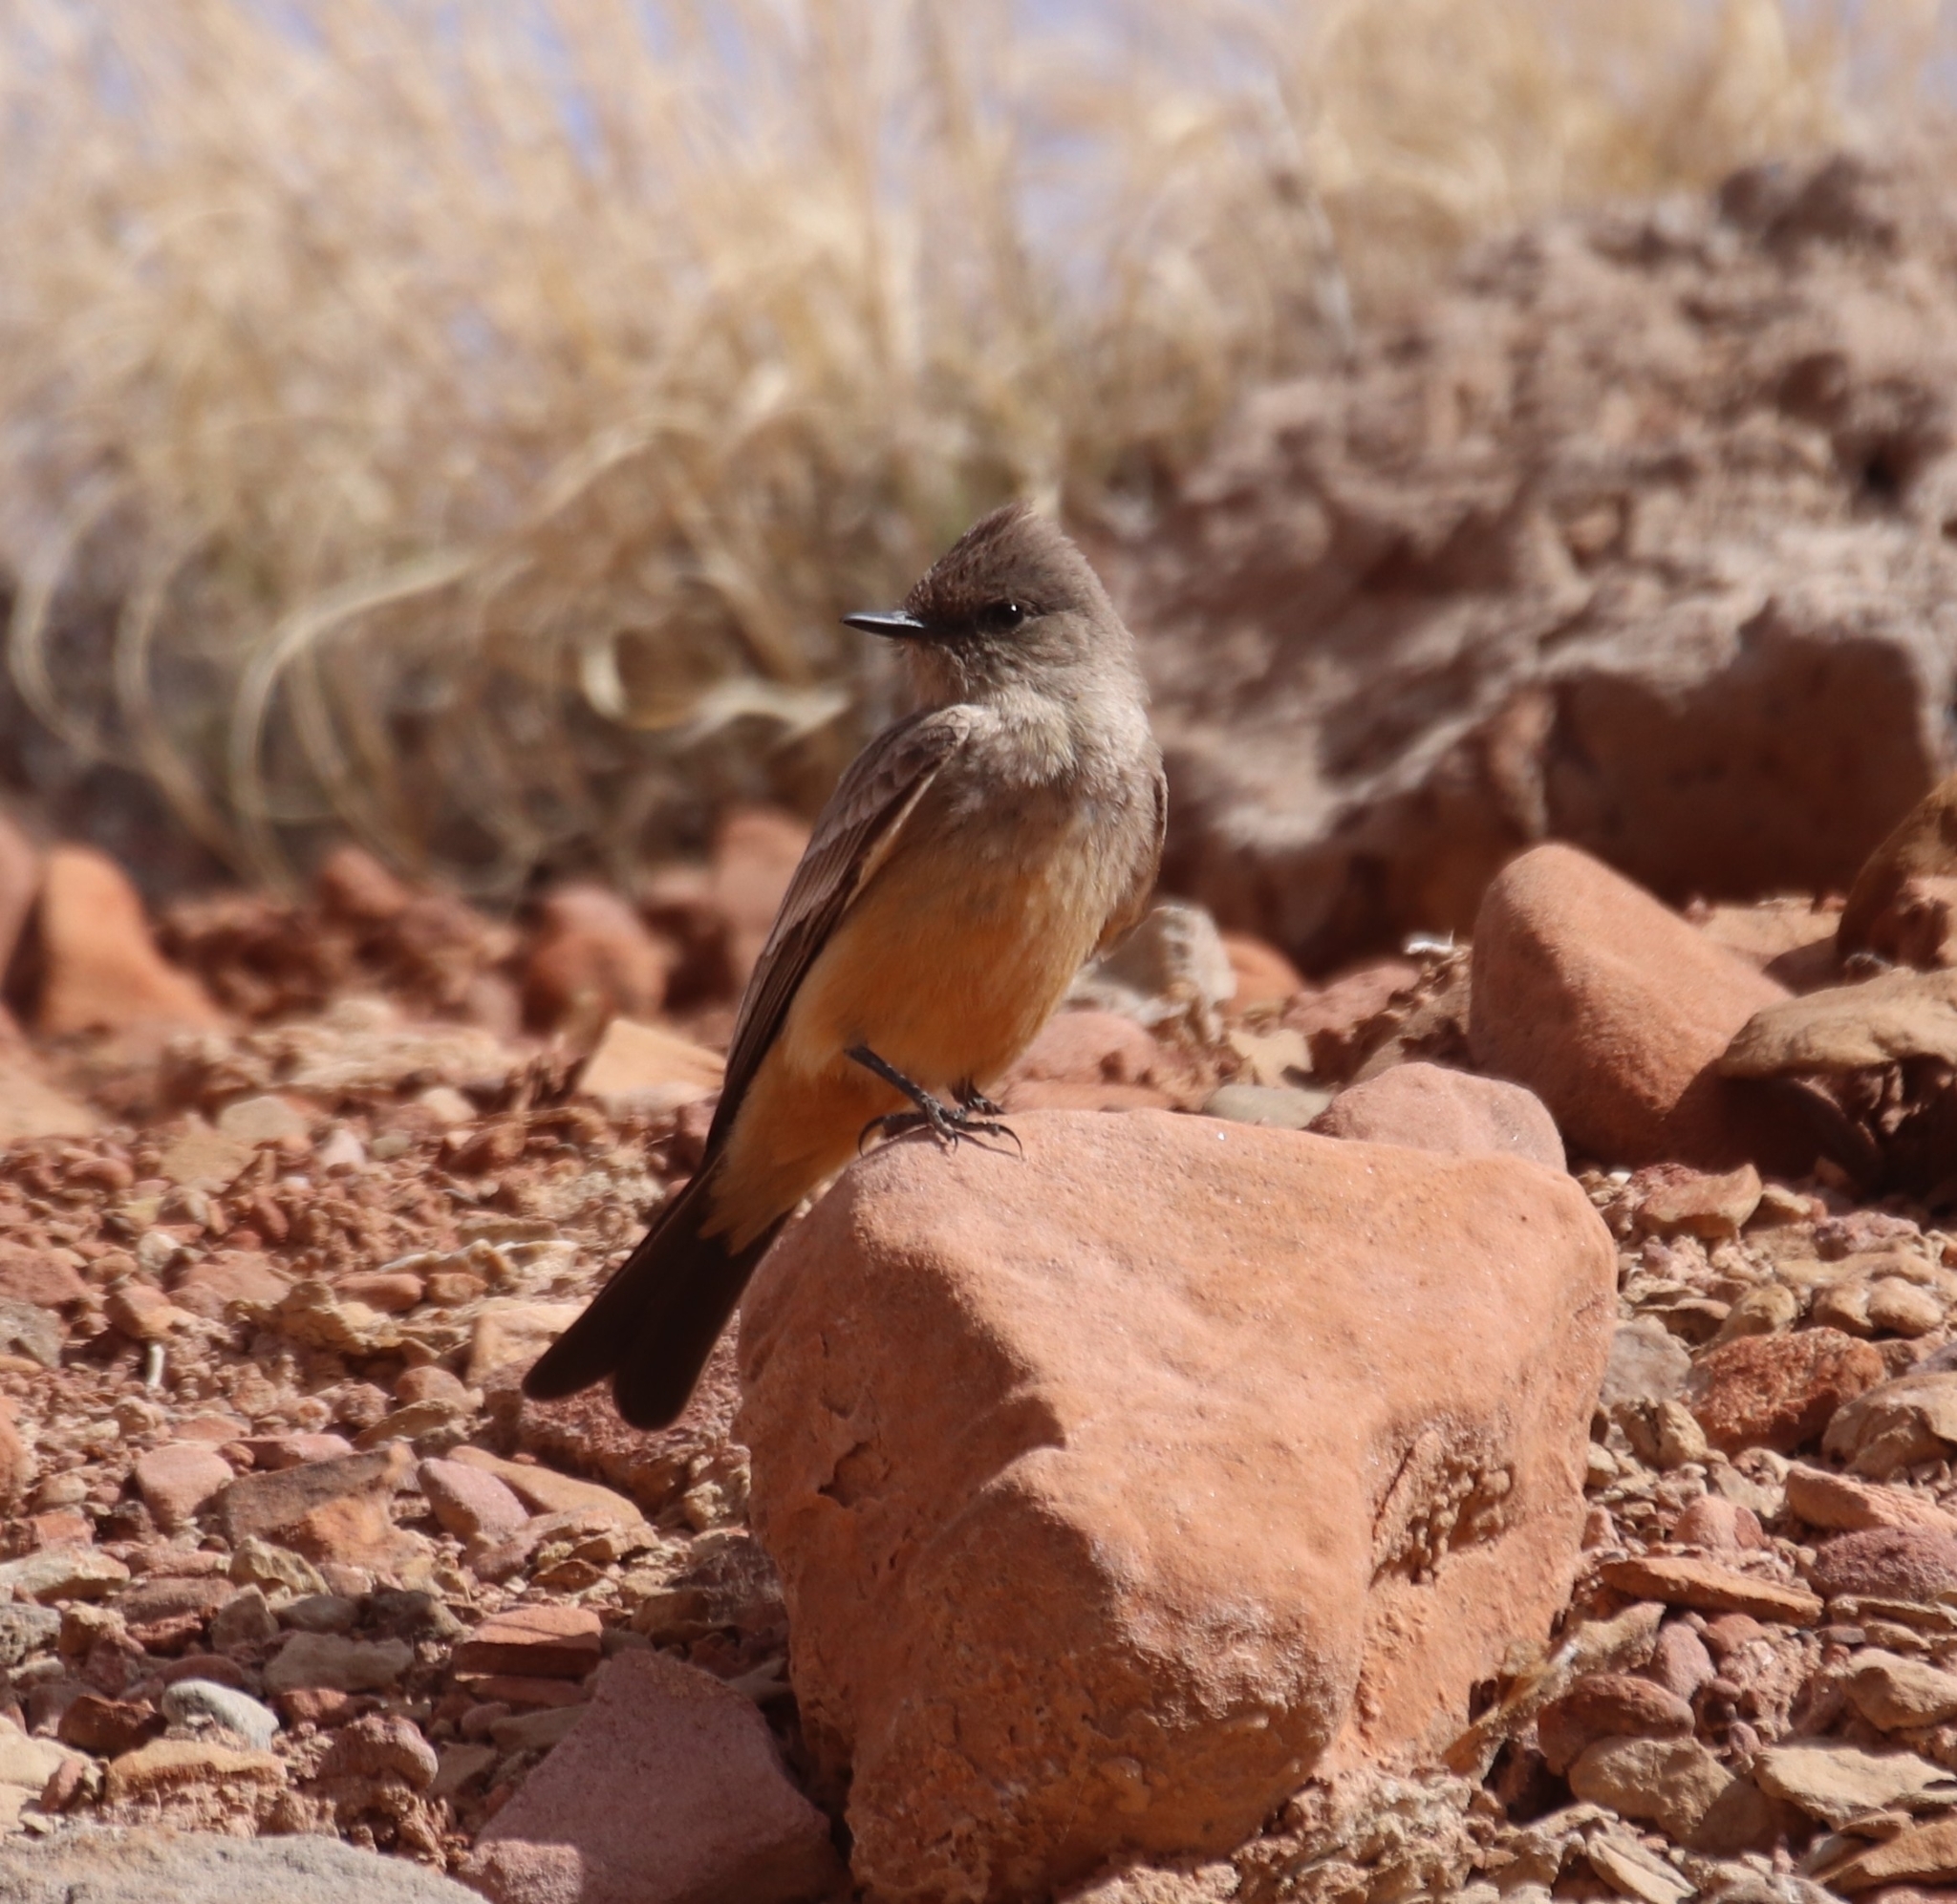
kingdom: Animalia
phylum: Chordata
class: Aves
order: Passeriformes
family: Tyrannidae
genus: Sayornis
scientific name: Sayornis saya
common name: Say's phoebe
